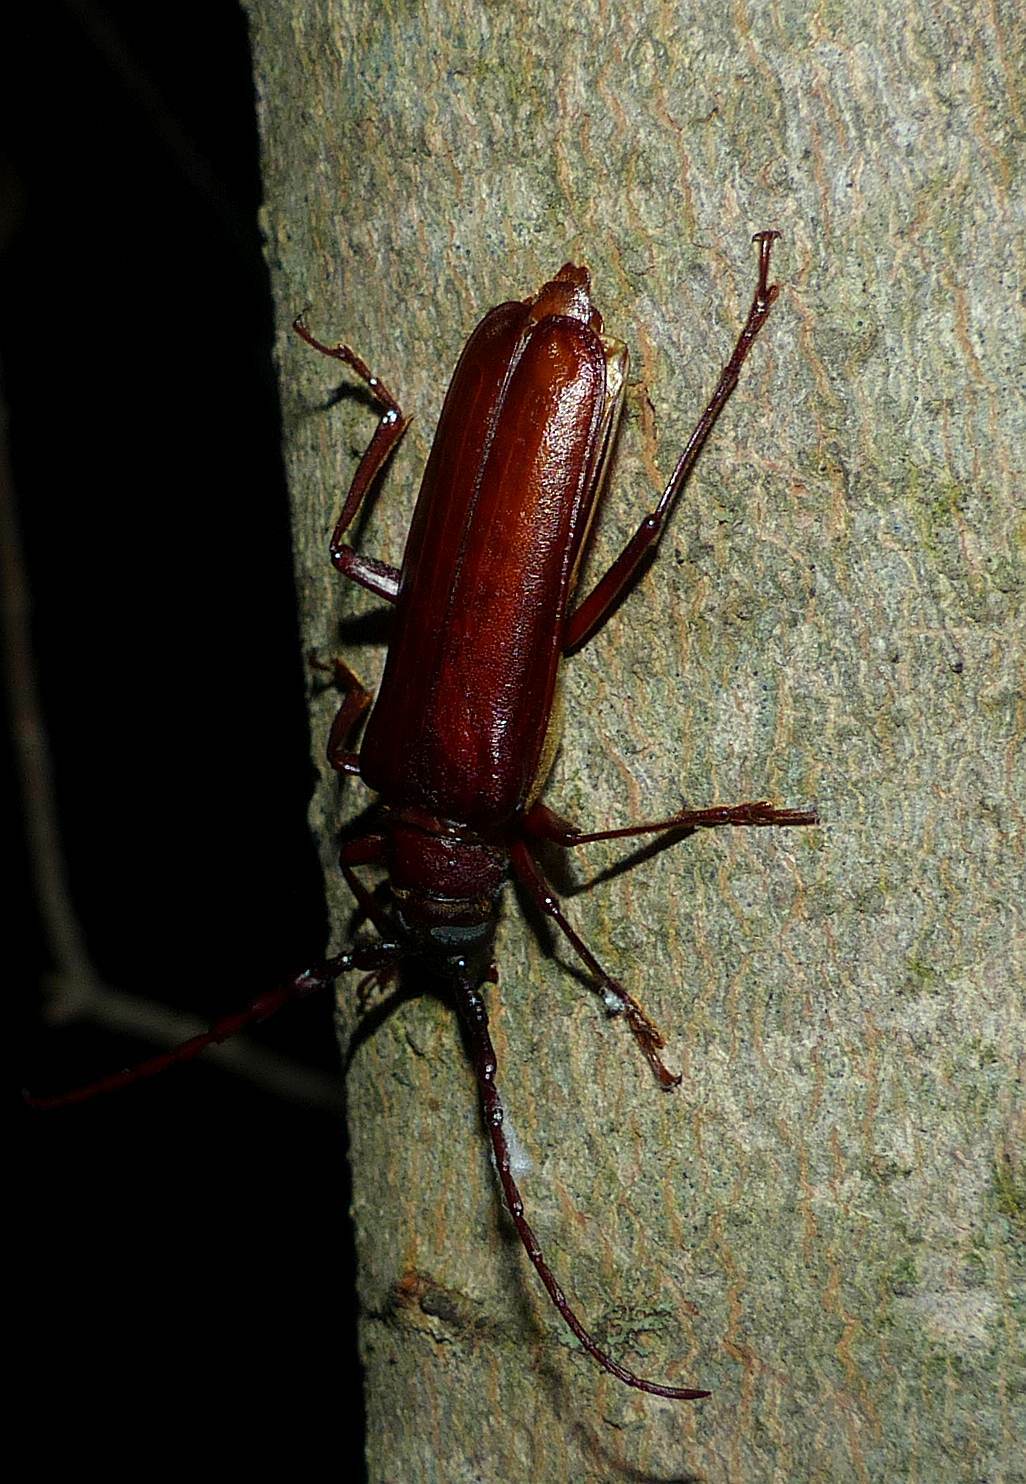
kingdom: Animalia
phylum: Arthropoda
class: Insecta
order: Coleoptera
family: Cerambycidae
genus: Orthosoma
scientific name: Orthosoma brunneum
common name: Brown prionid beetle
